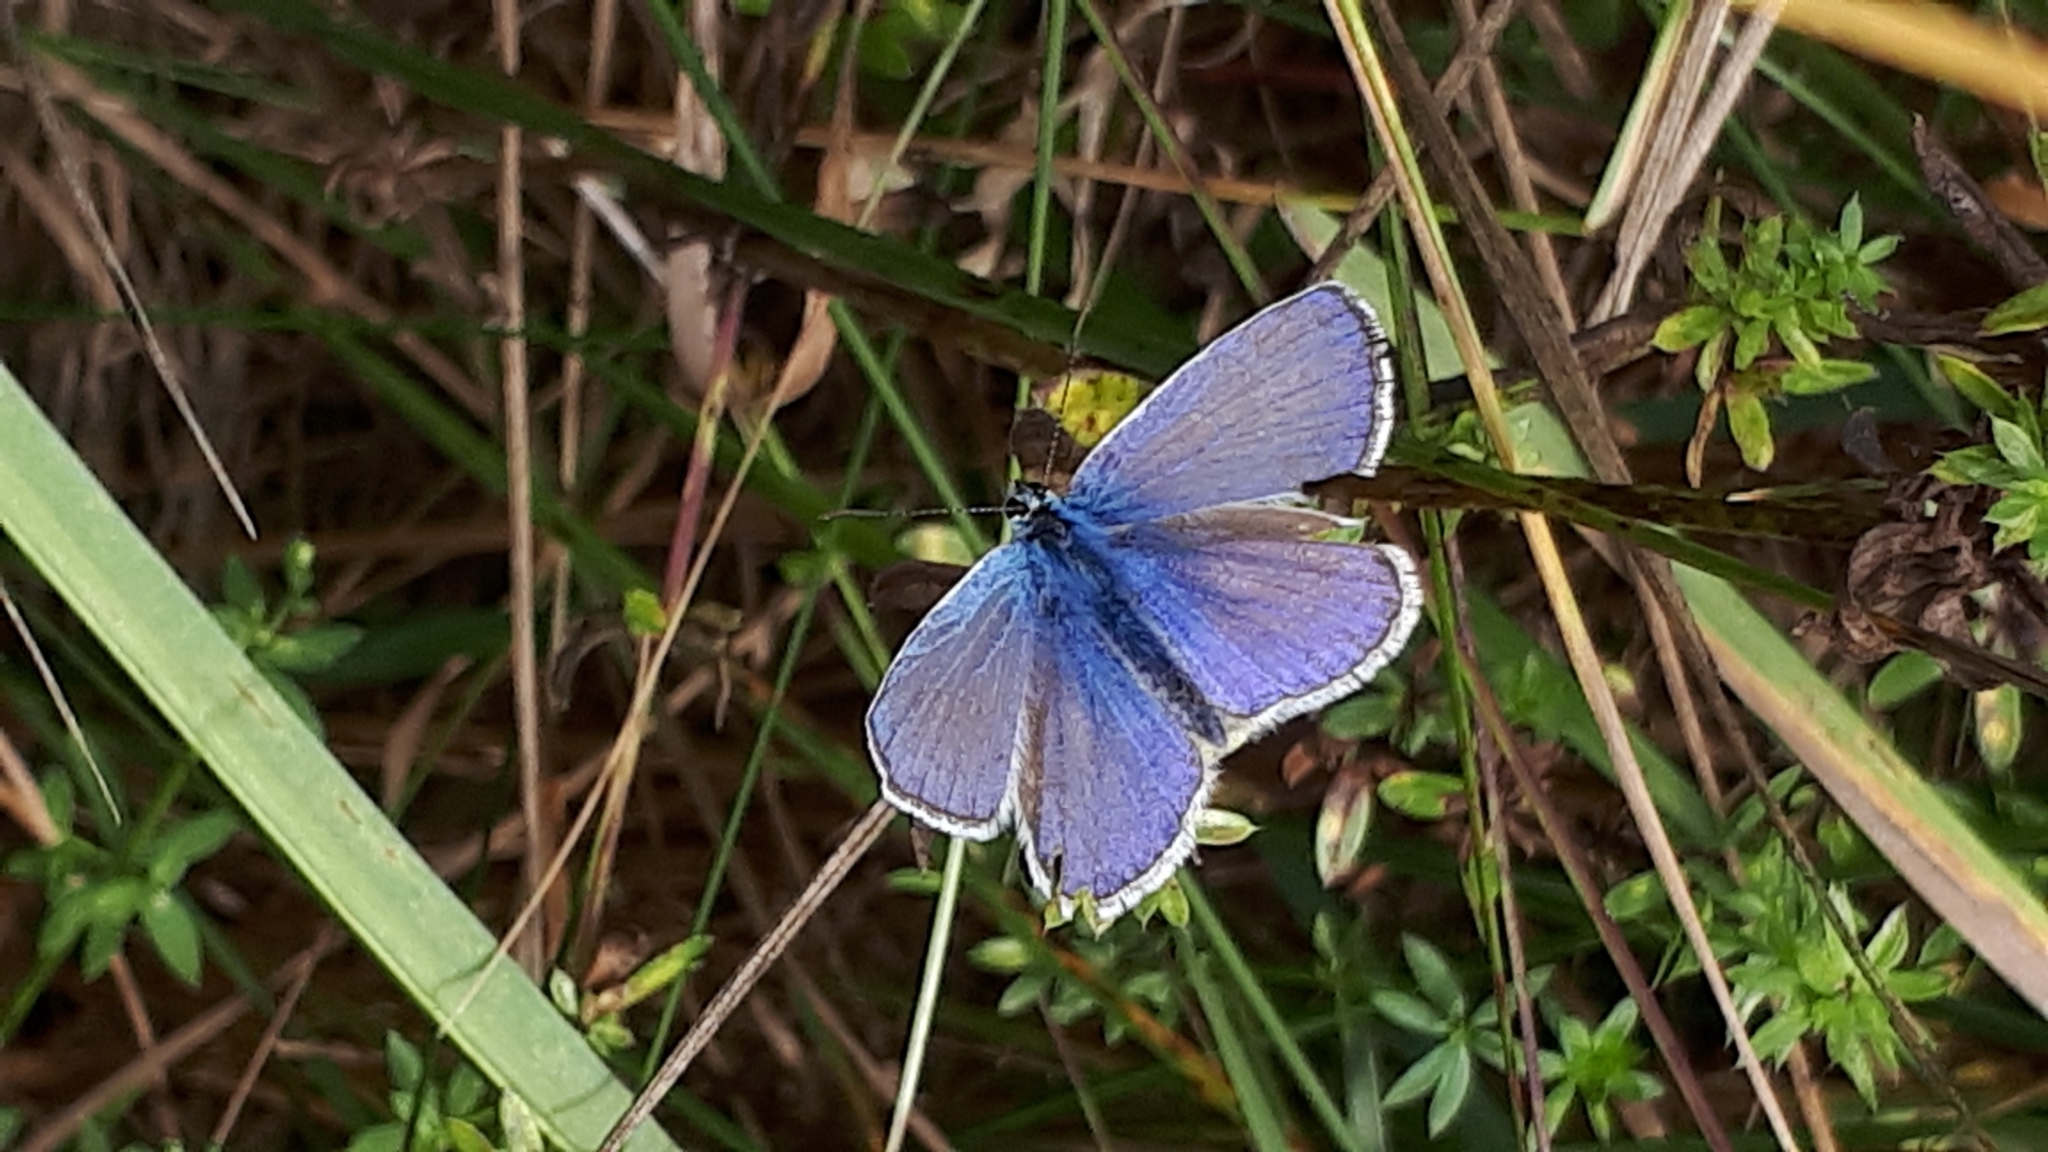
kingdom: Animalia
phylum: Arthropoda
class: Insecta
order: Lepidoptera
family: Lycaenidae
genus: Polyommatus
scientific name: Polyommatus icarus
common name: Common blue
